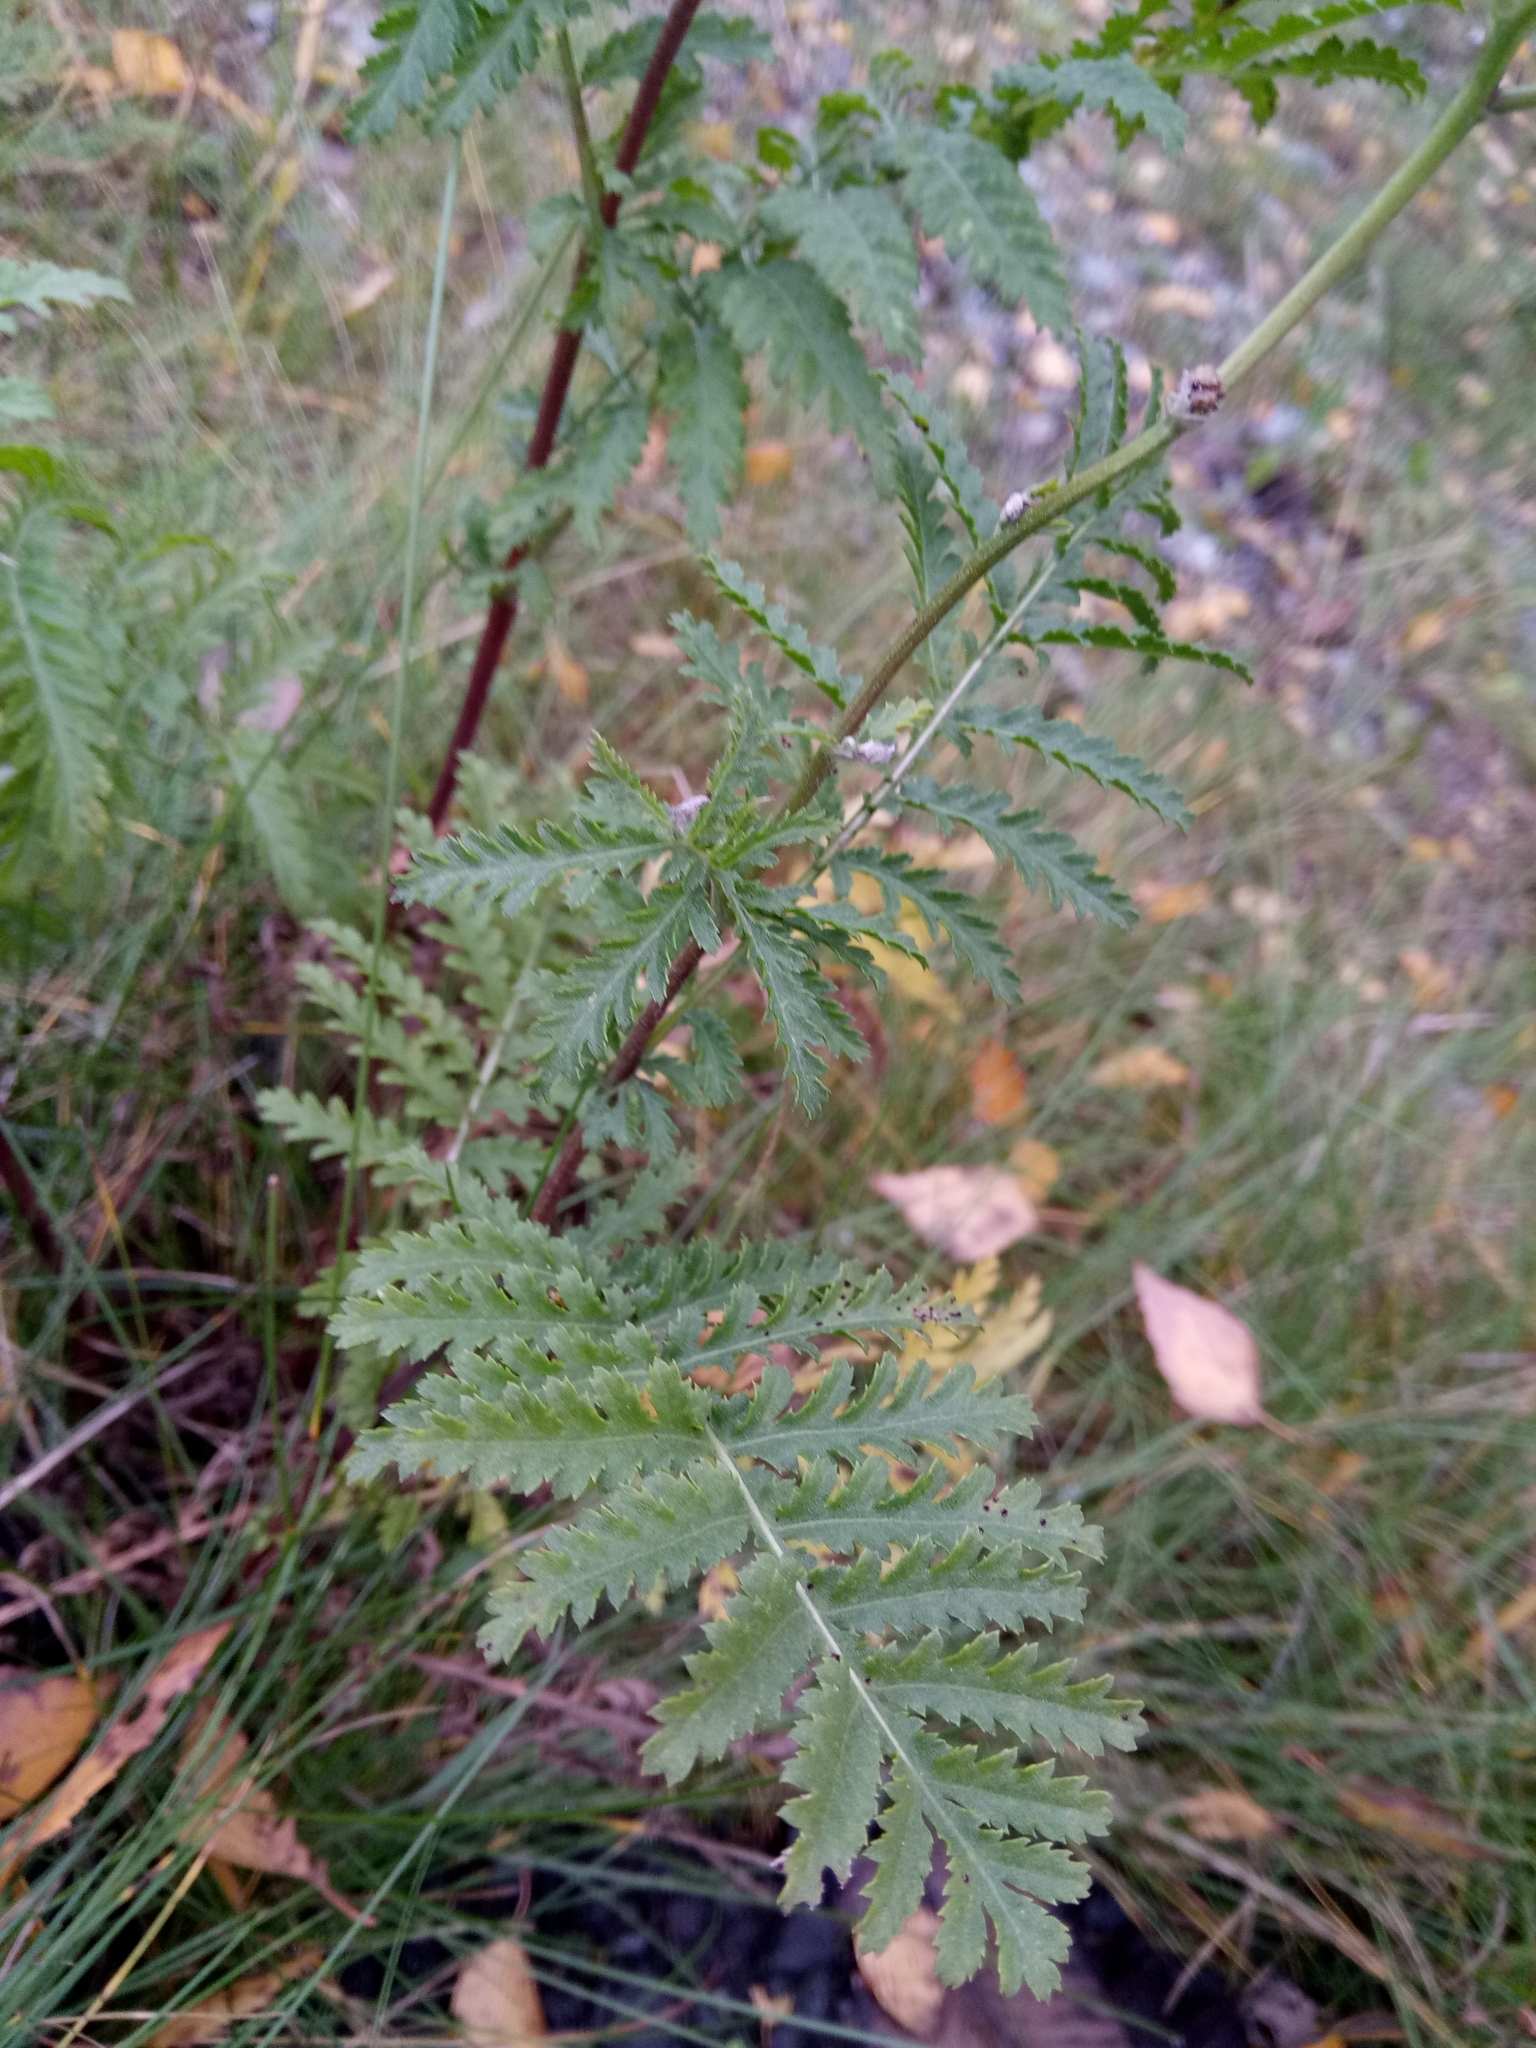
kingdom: Plantae
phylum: Tracheophyta
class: Magnoliopsida
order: Asterales
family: Asteraceae
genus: Tanacetum
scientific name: Tanacetum vulgare
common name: Common tansy
